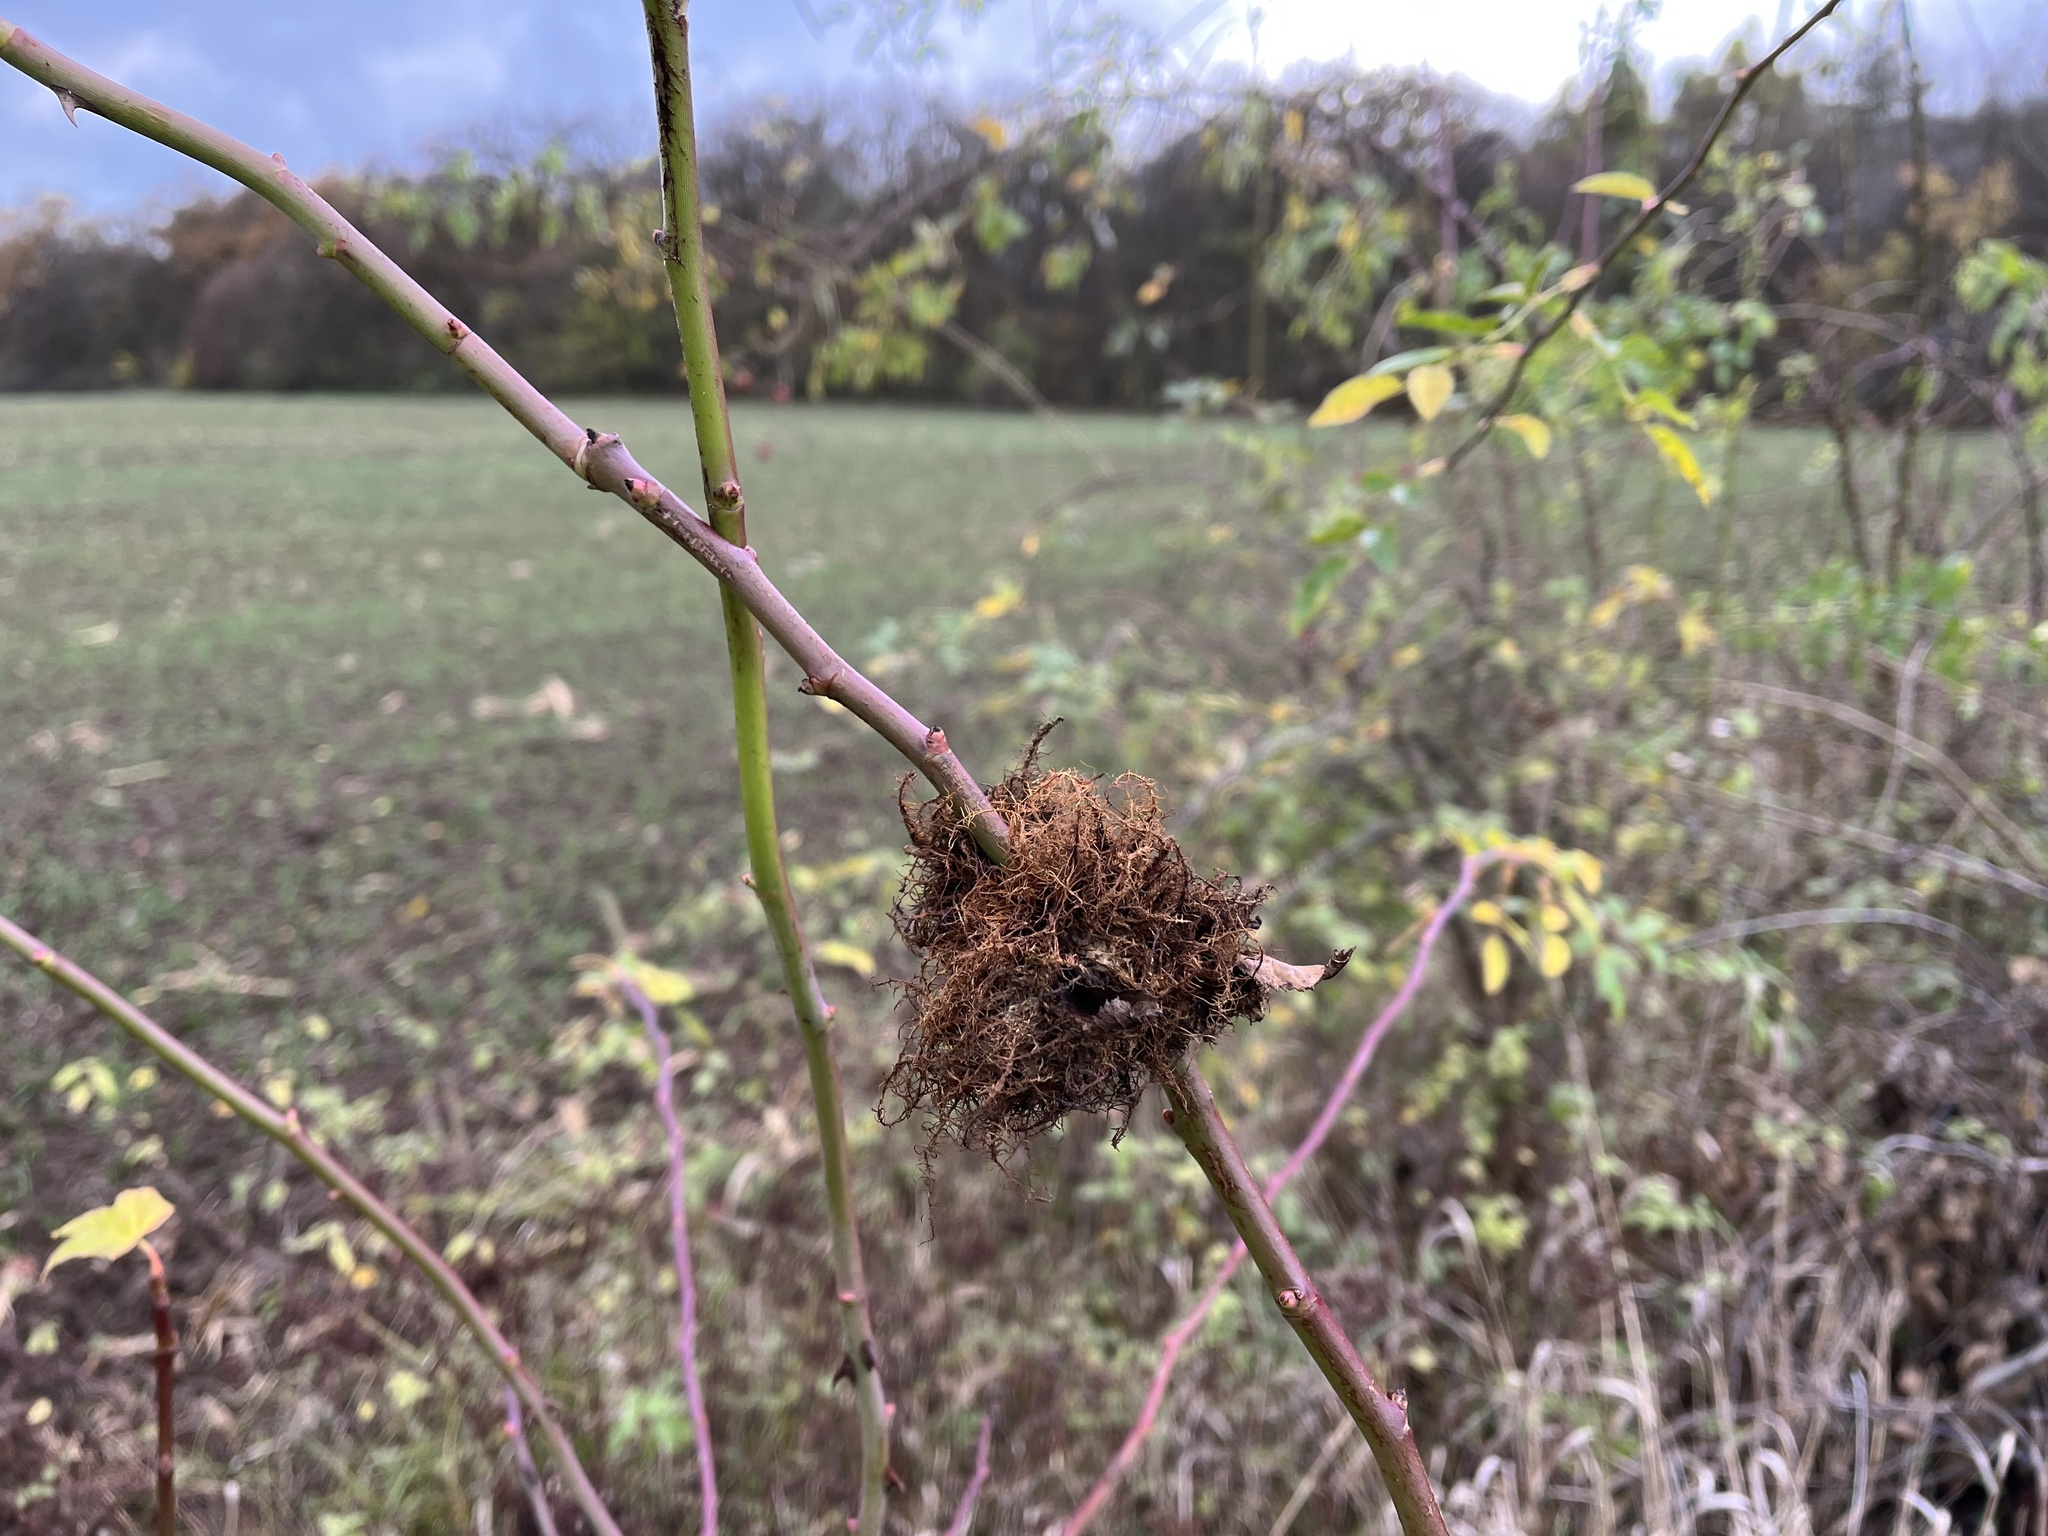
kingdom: Animalia
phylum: Arthropoda
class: Insecta
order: Hymenoptera
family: Cynipidae
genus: Diplolepis
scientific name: Diplolepis rosae
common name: Bedeguar gall
